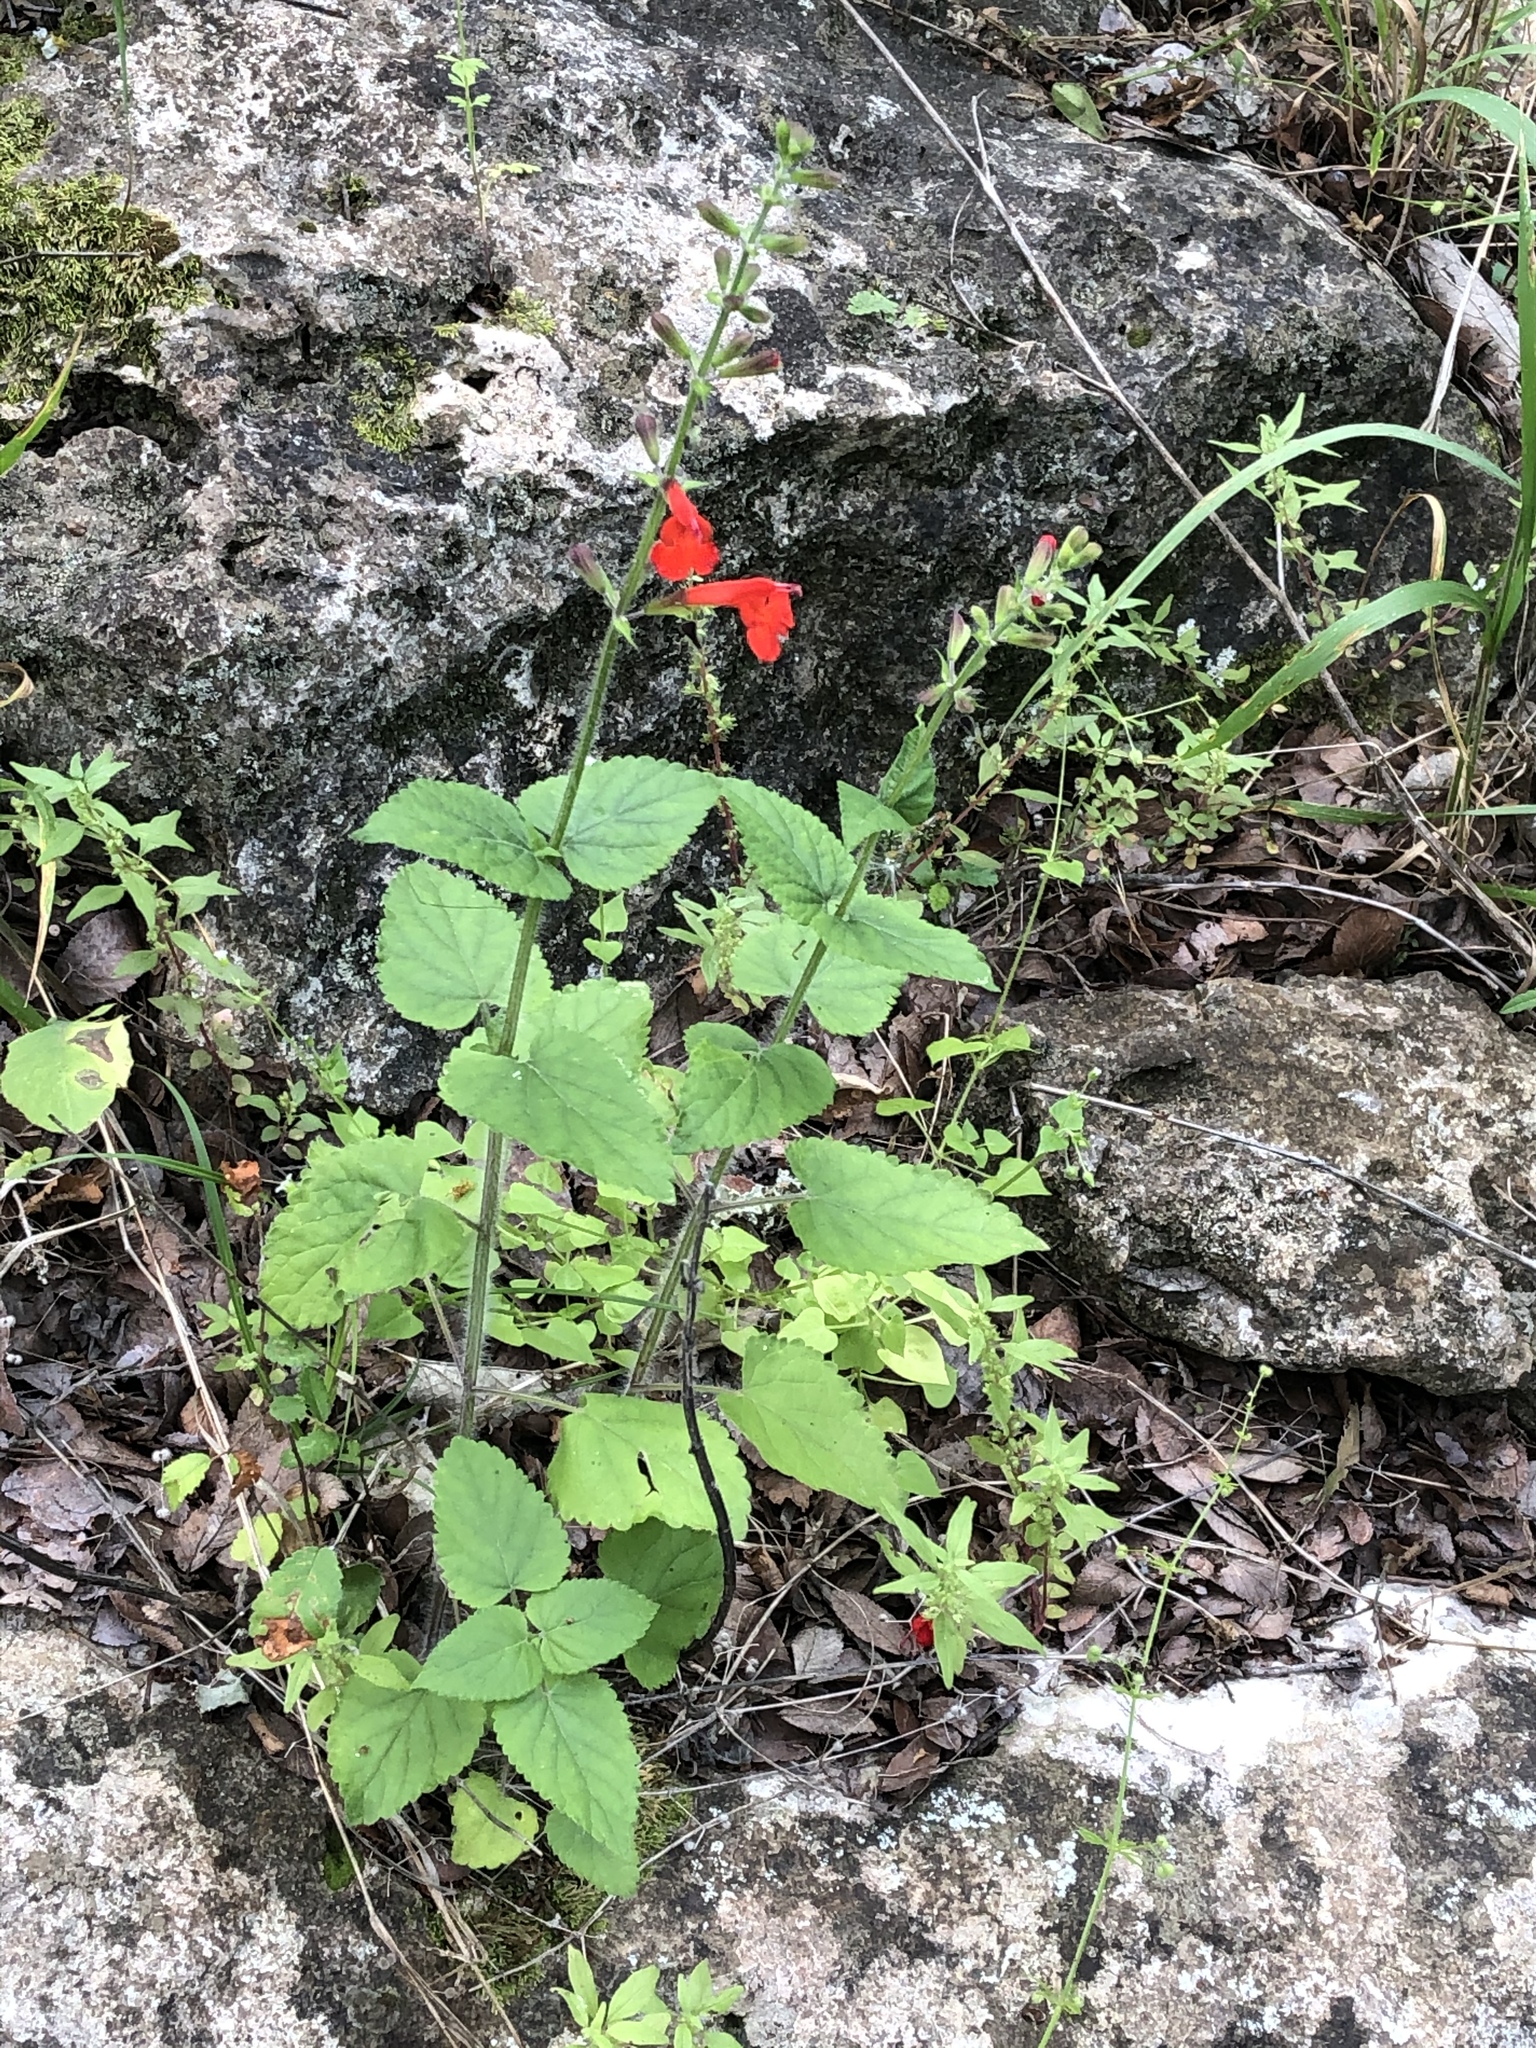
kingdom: Plantae
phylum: Tracheophyta
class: Magnoliopsida
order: Lamiales
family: Lamiaceae
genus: Salvia
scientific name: Salvia coccinea
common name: Blood sage
